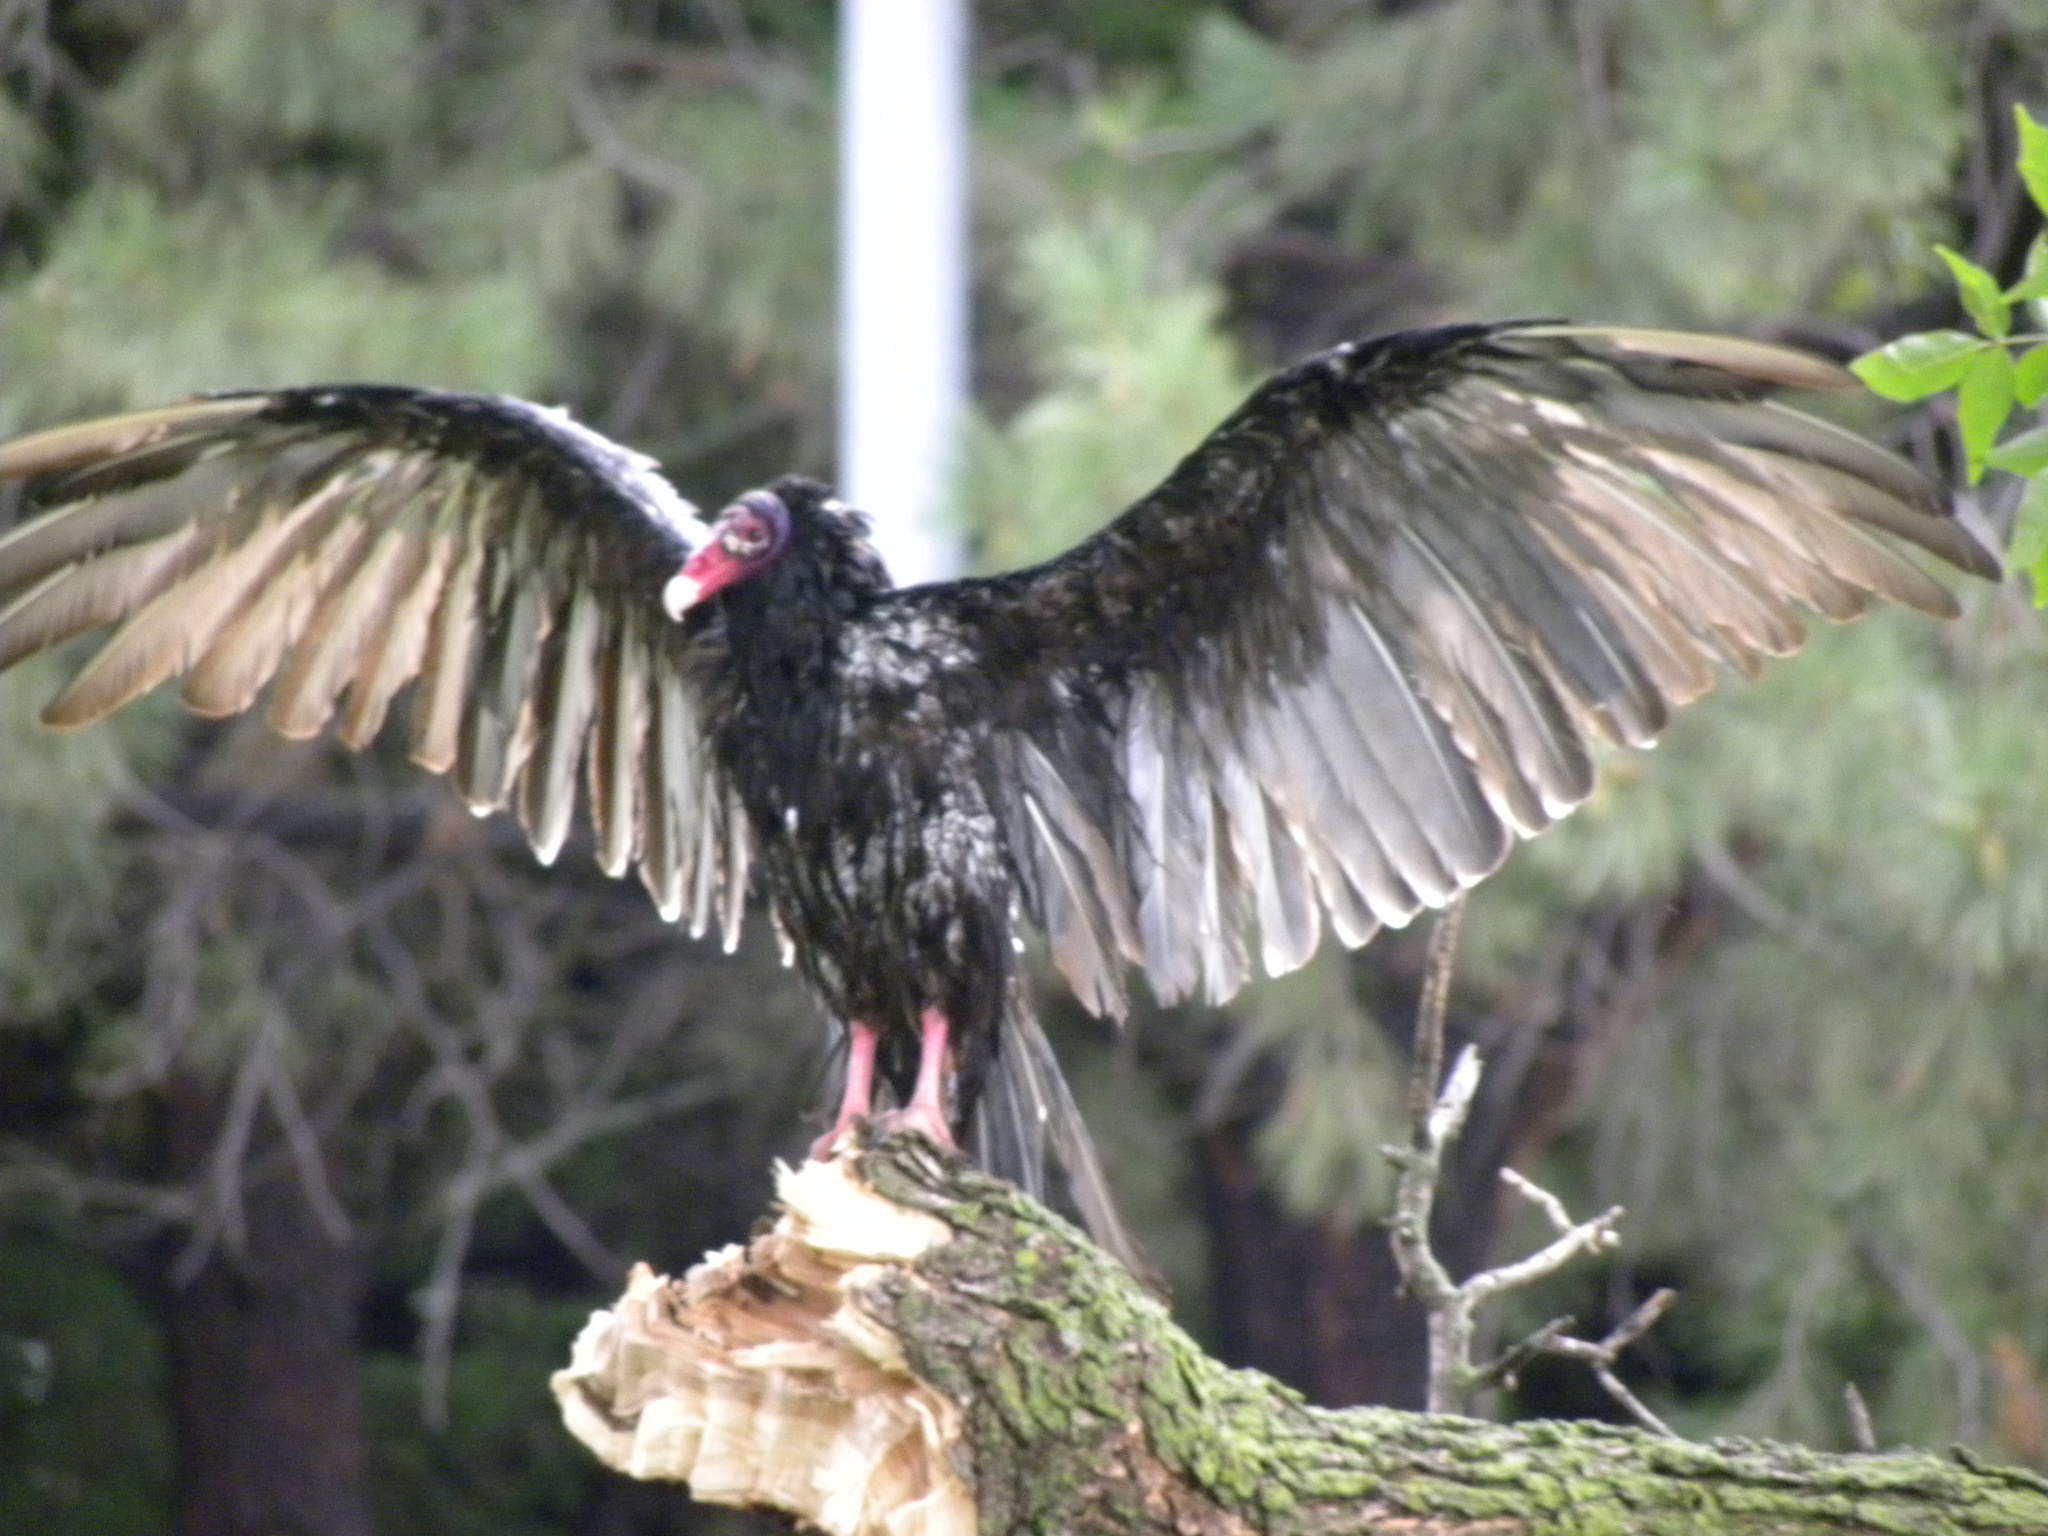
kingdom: Animalia
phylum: Chordata
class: Aves
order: Accipitriformes
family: Cathartidae
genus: Cathartes
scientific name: Cathartes aura
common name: Turkey vulture
